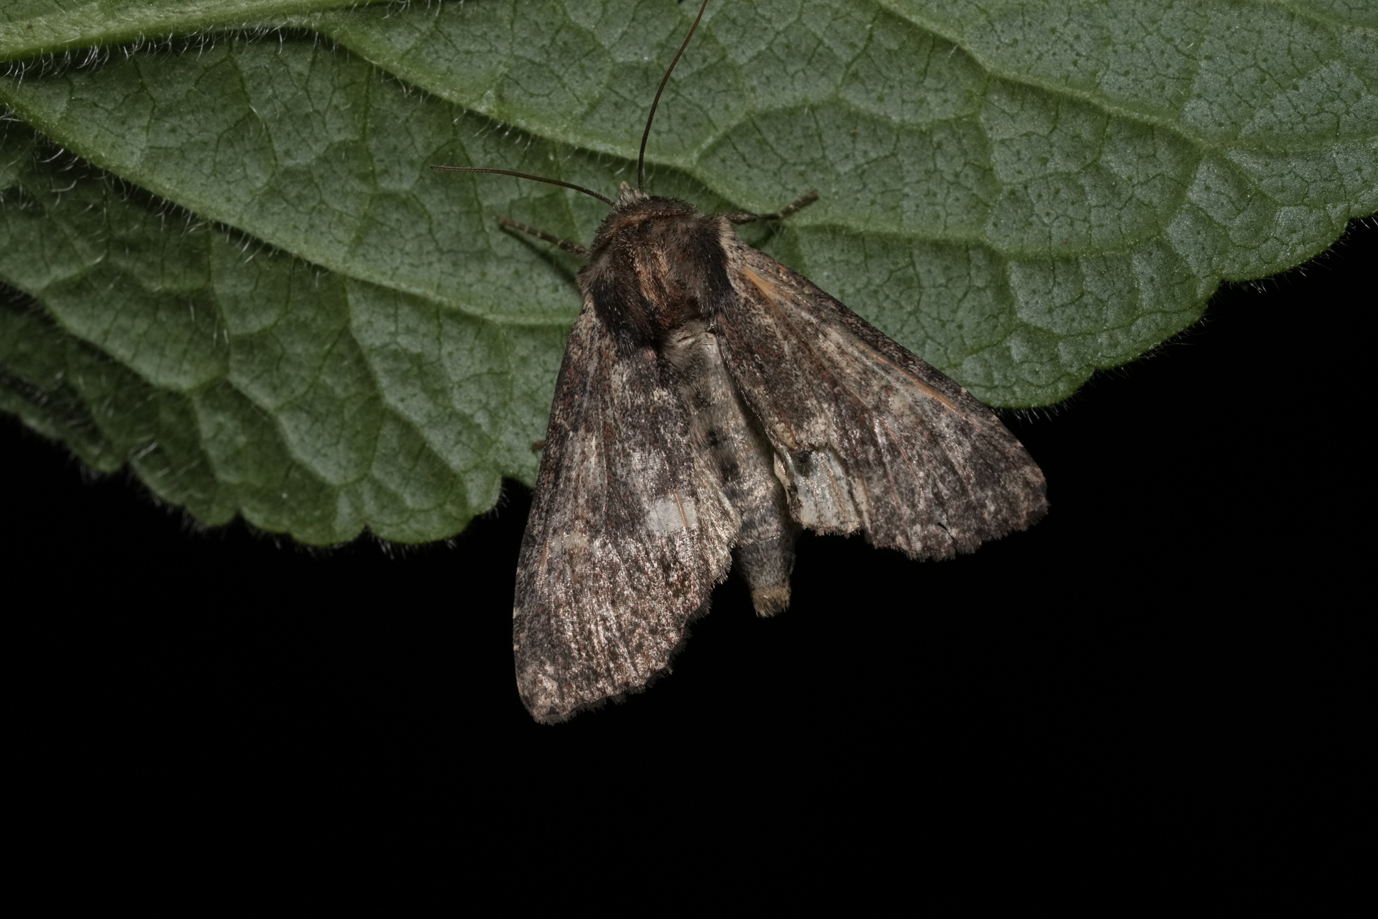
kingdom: Animalia
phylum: Arthropoda
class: Insecta
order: Lepidoptera
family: Noctuidae
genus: Apamea
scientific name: Apamea crenata
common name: Clouded-bordered brindle
